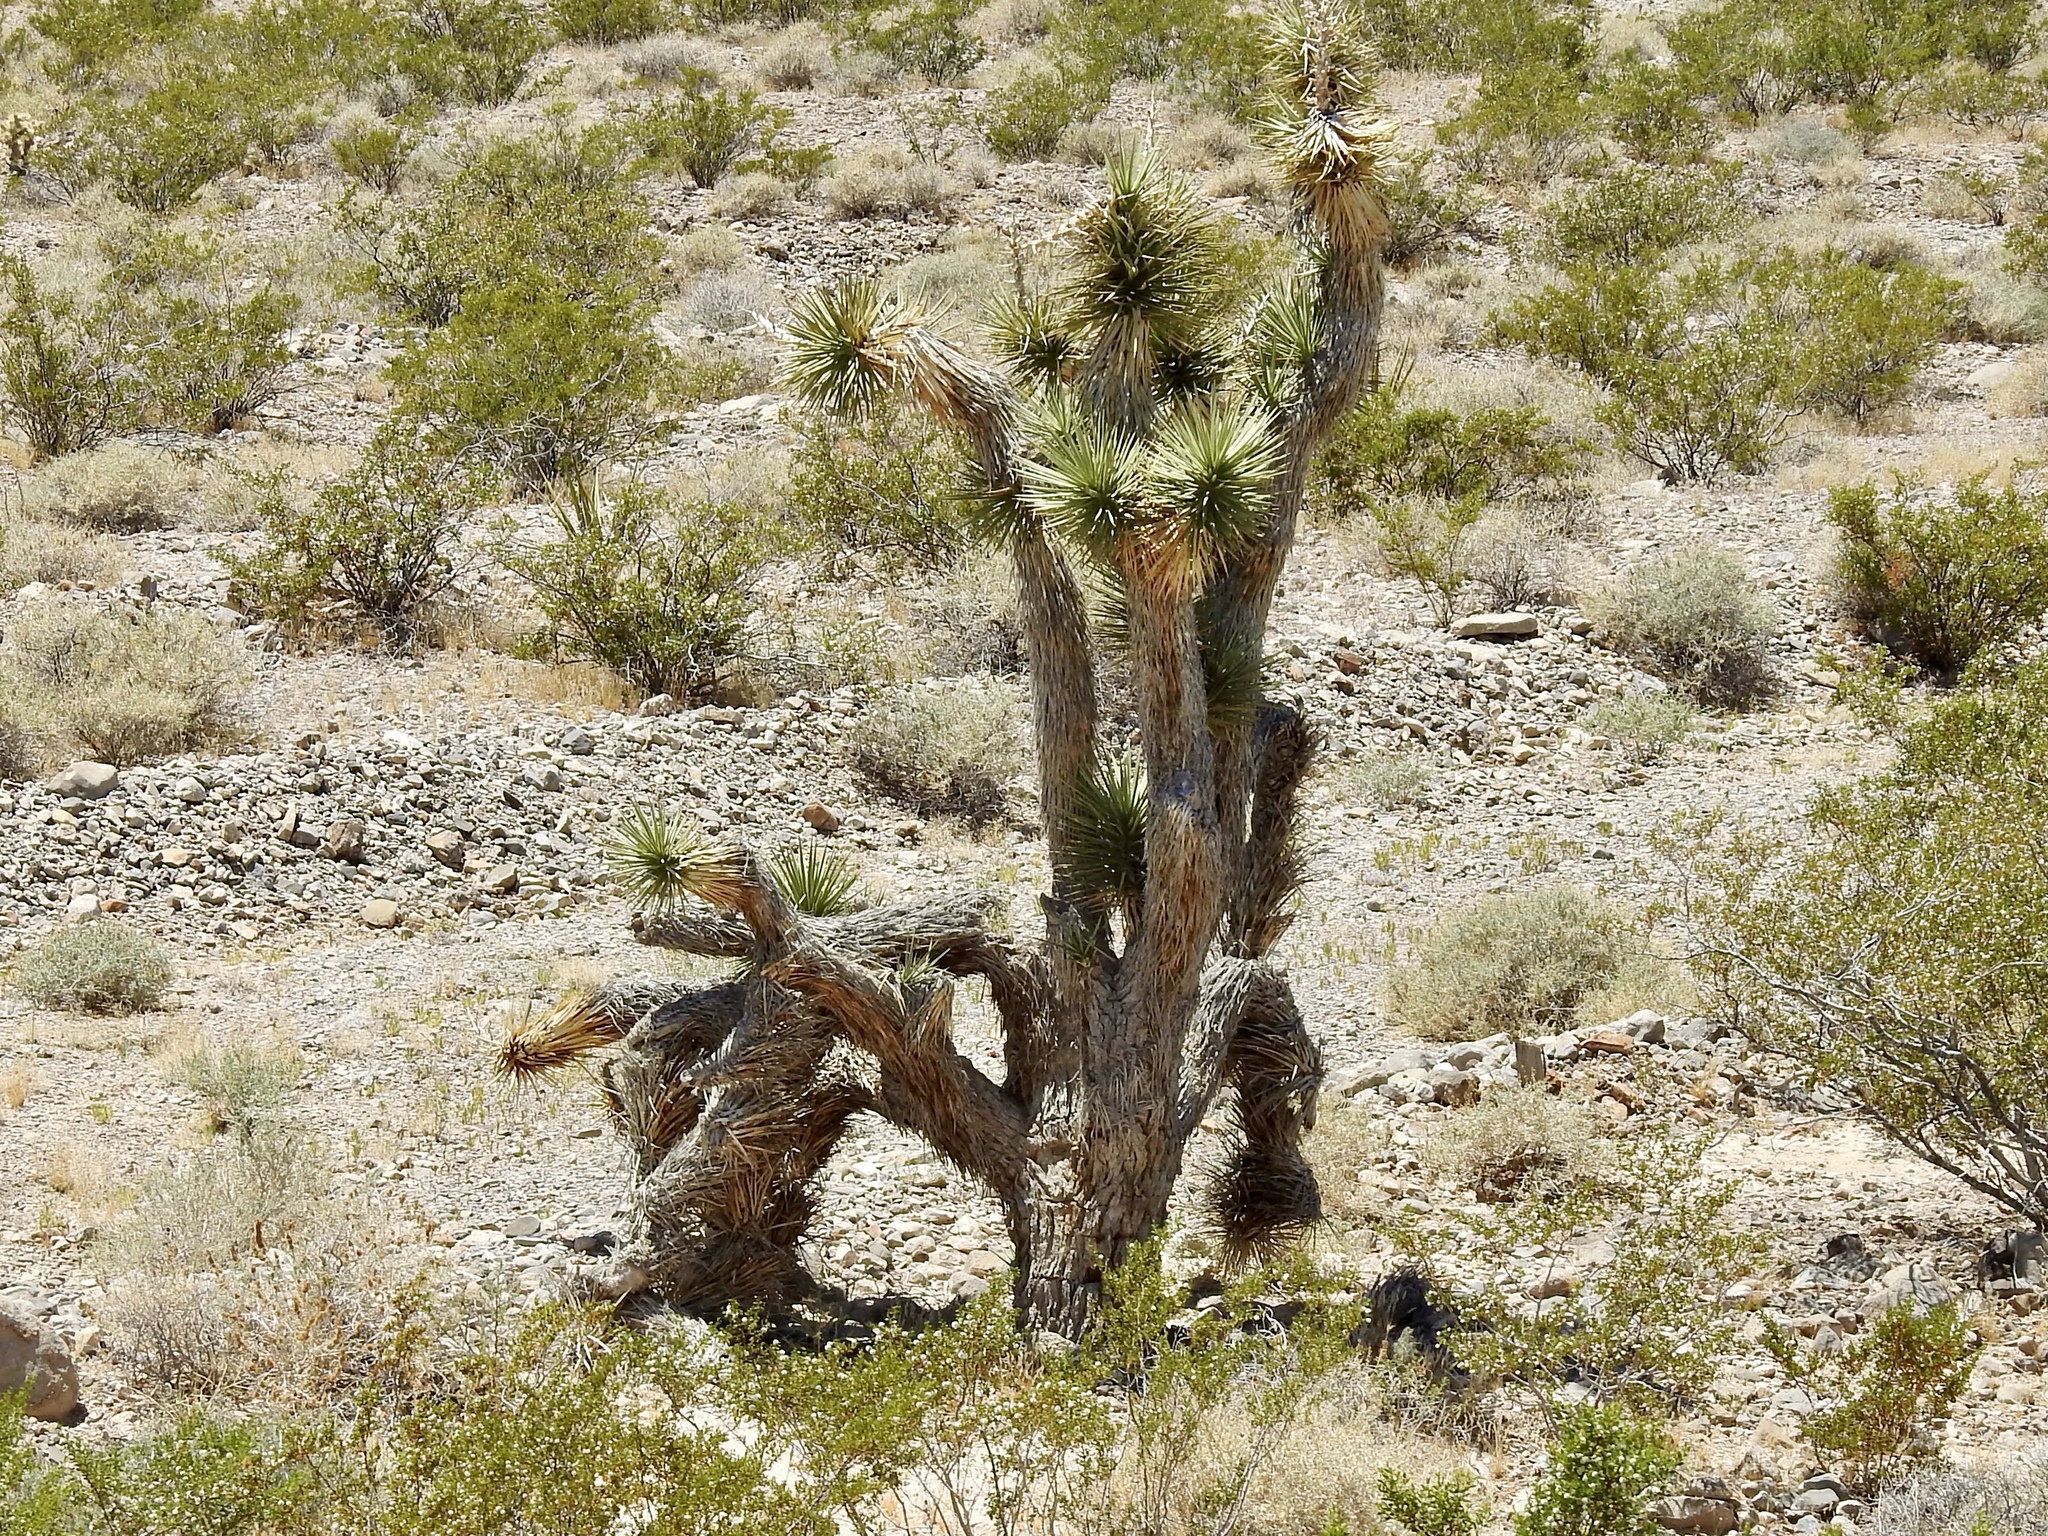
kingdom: Plantae
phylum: Tracheophyta
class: Liliopsida
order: Asparagales
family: Asparagaceae
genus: Yucca
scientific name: Yucca brevifolia
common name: Joshua tree
